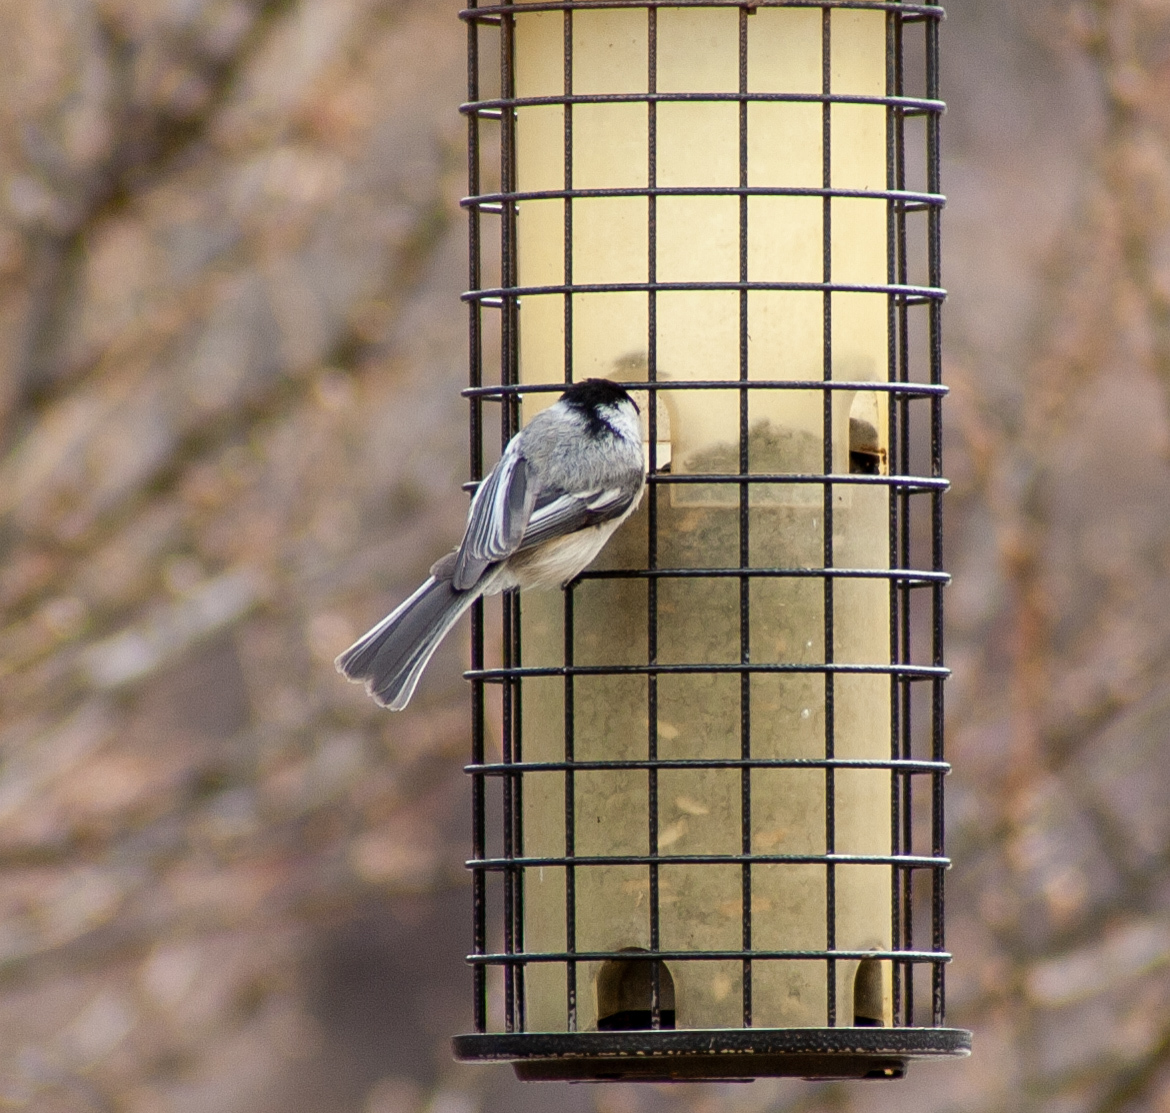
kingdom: Animalia
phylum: Chordata
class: Aves
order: Passeriformes
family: Paridae
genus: Poecile
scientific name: Poecile atricapillus
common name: Black-capped chickadee
